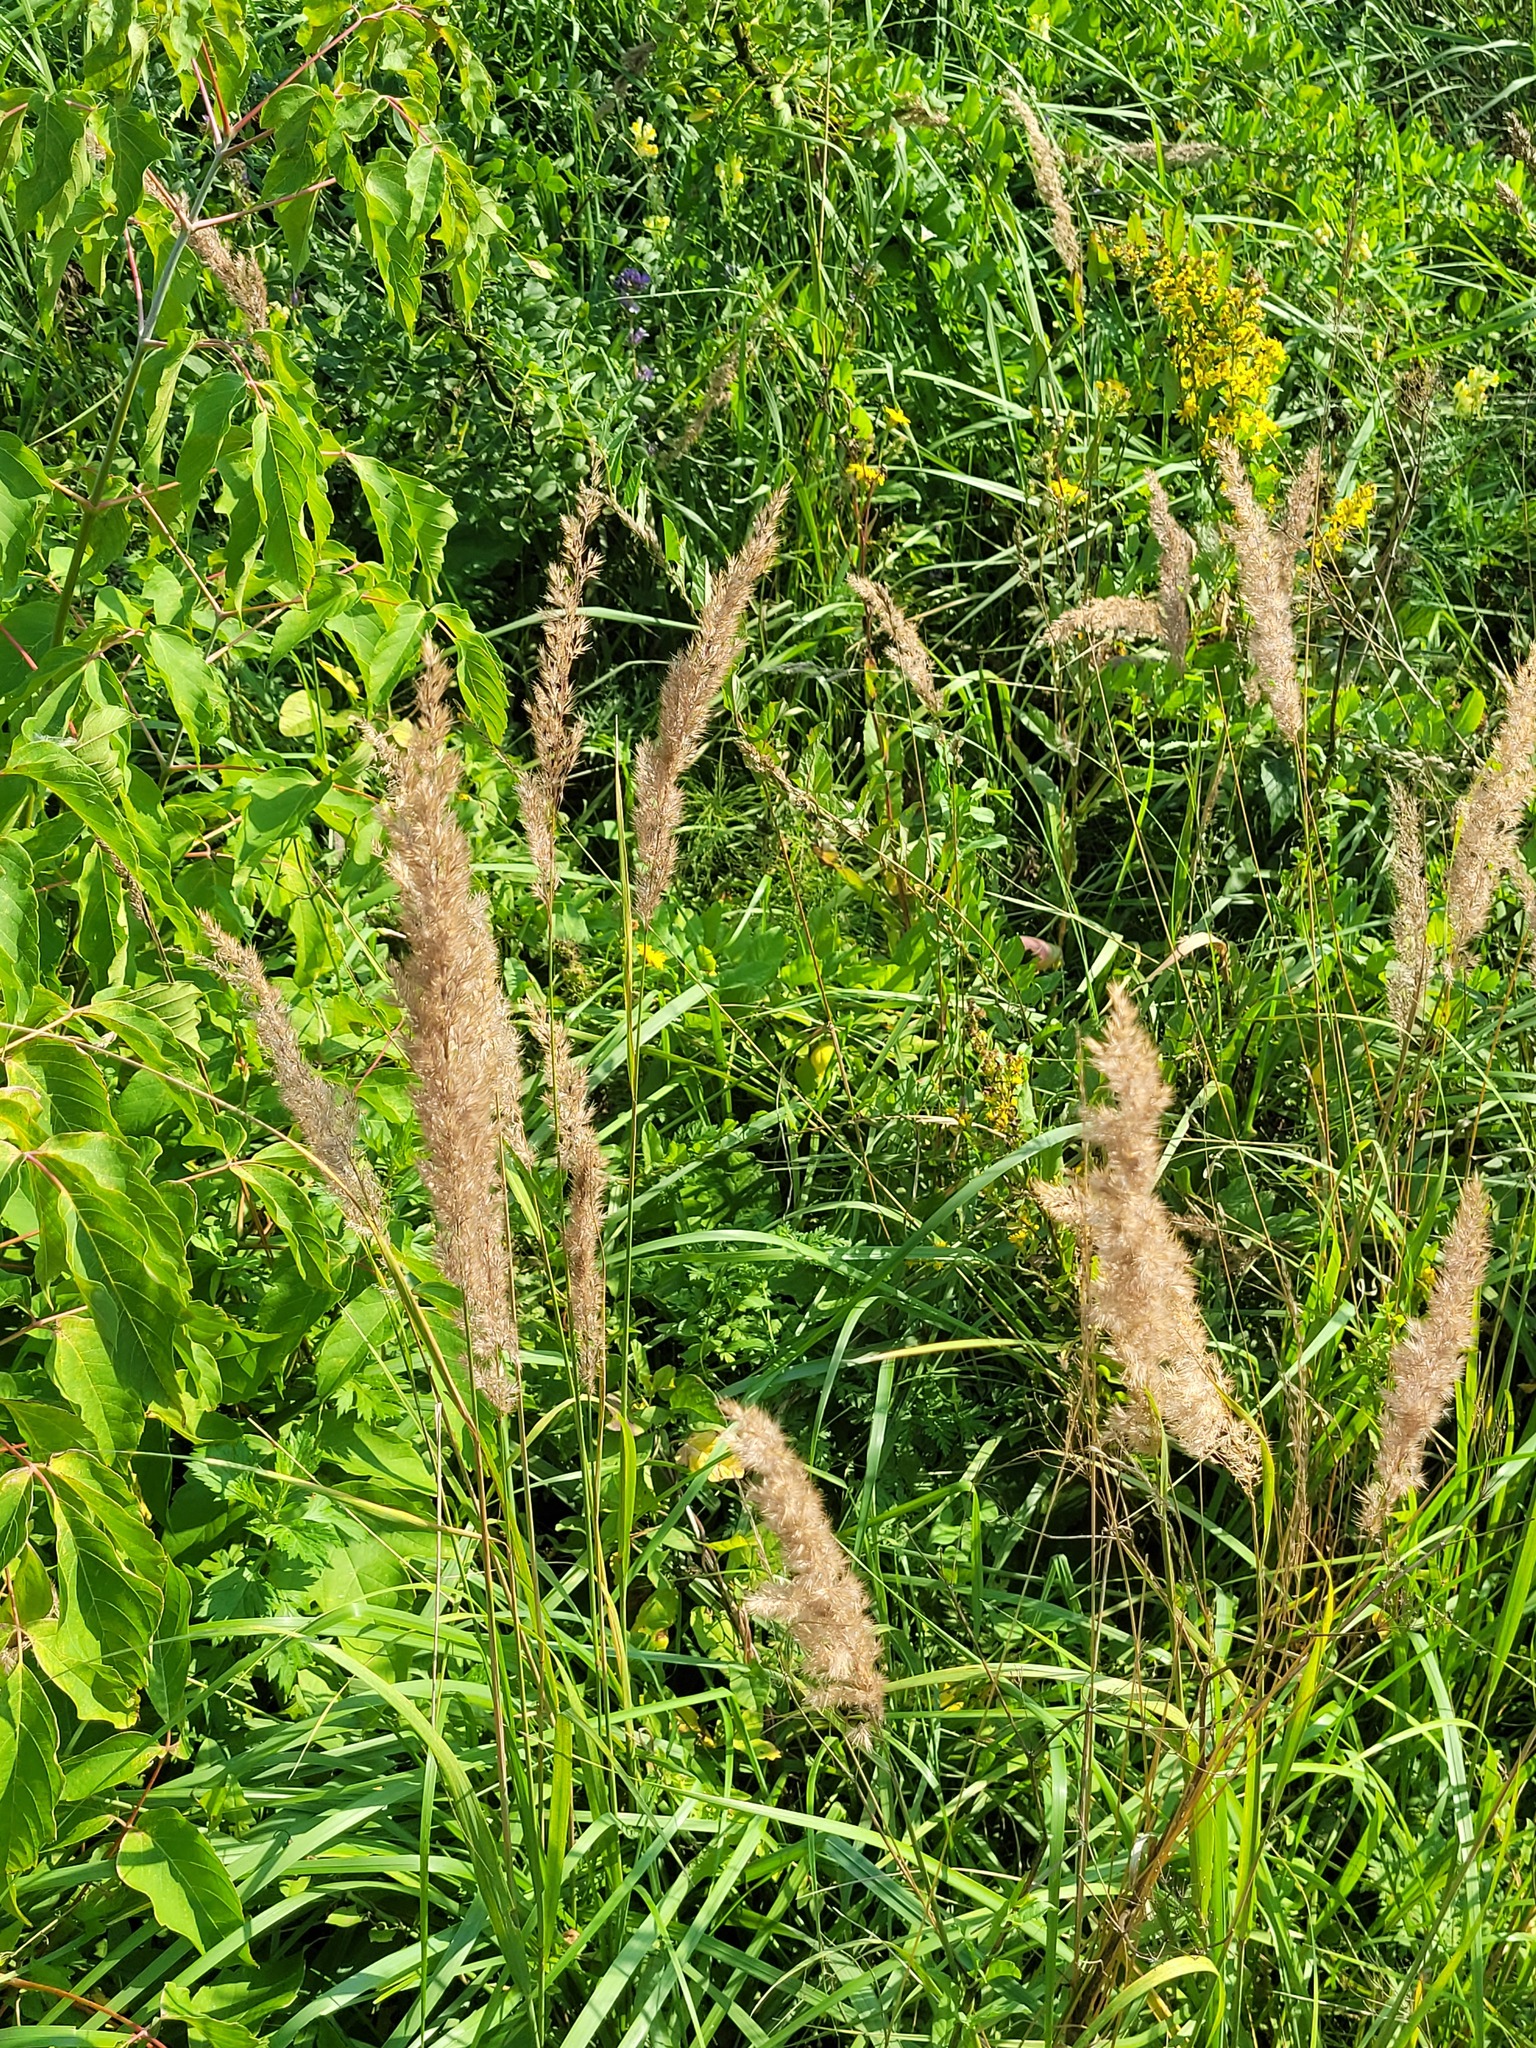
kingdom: Plantae
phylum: Tracheophyta
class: Liliopsida
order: Poales
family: Poaceae
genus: Calamagrostis
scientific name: Calamagrostis epigejos
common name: Wood small-reed
